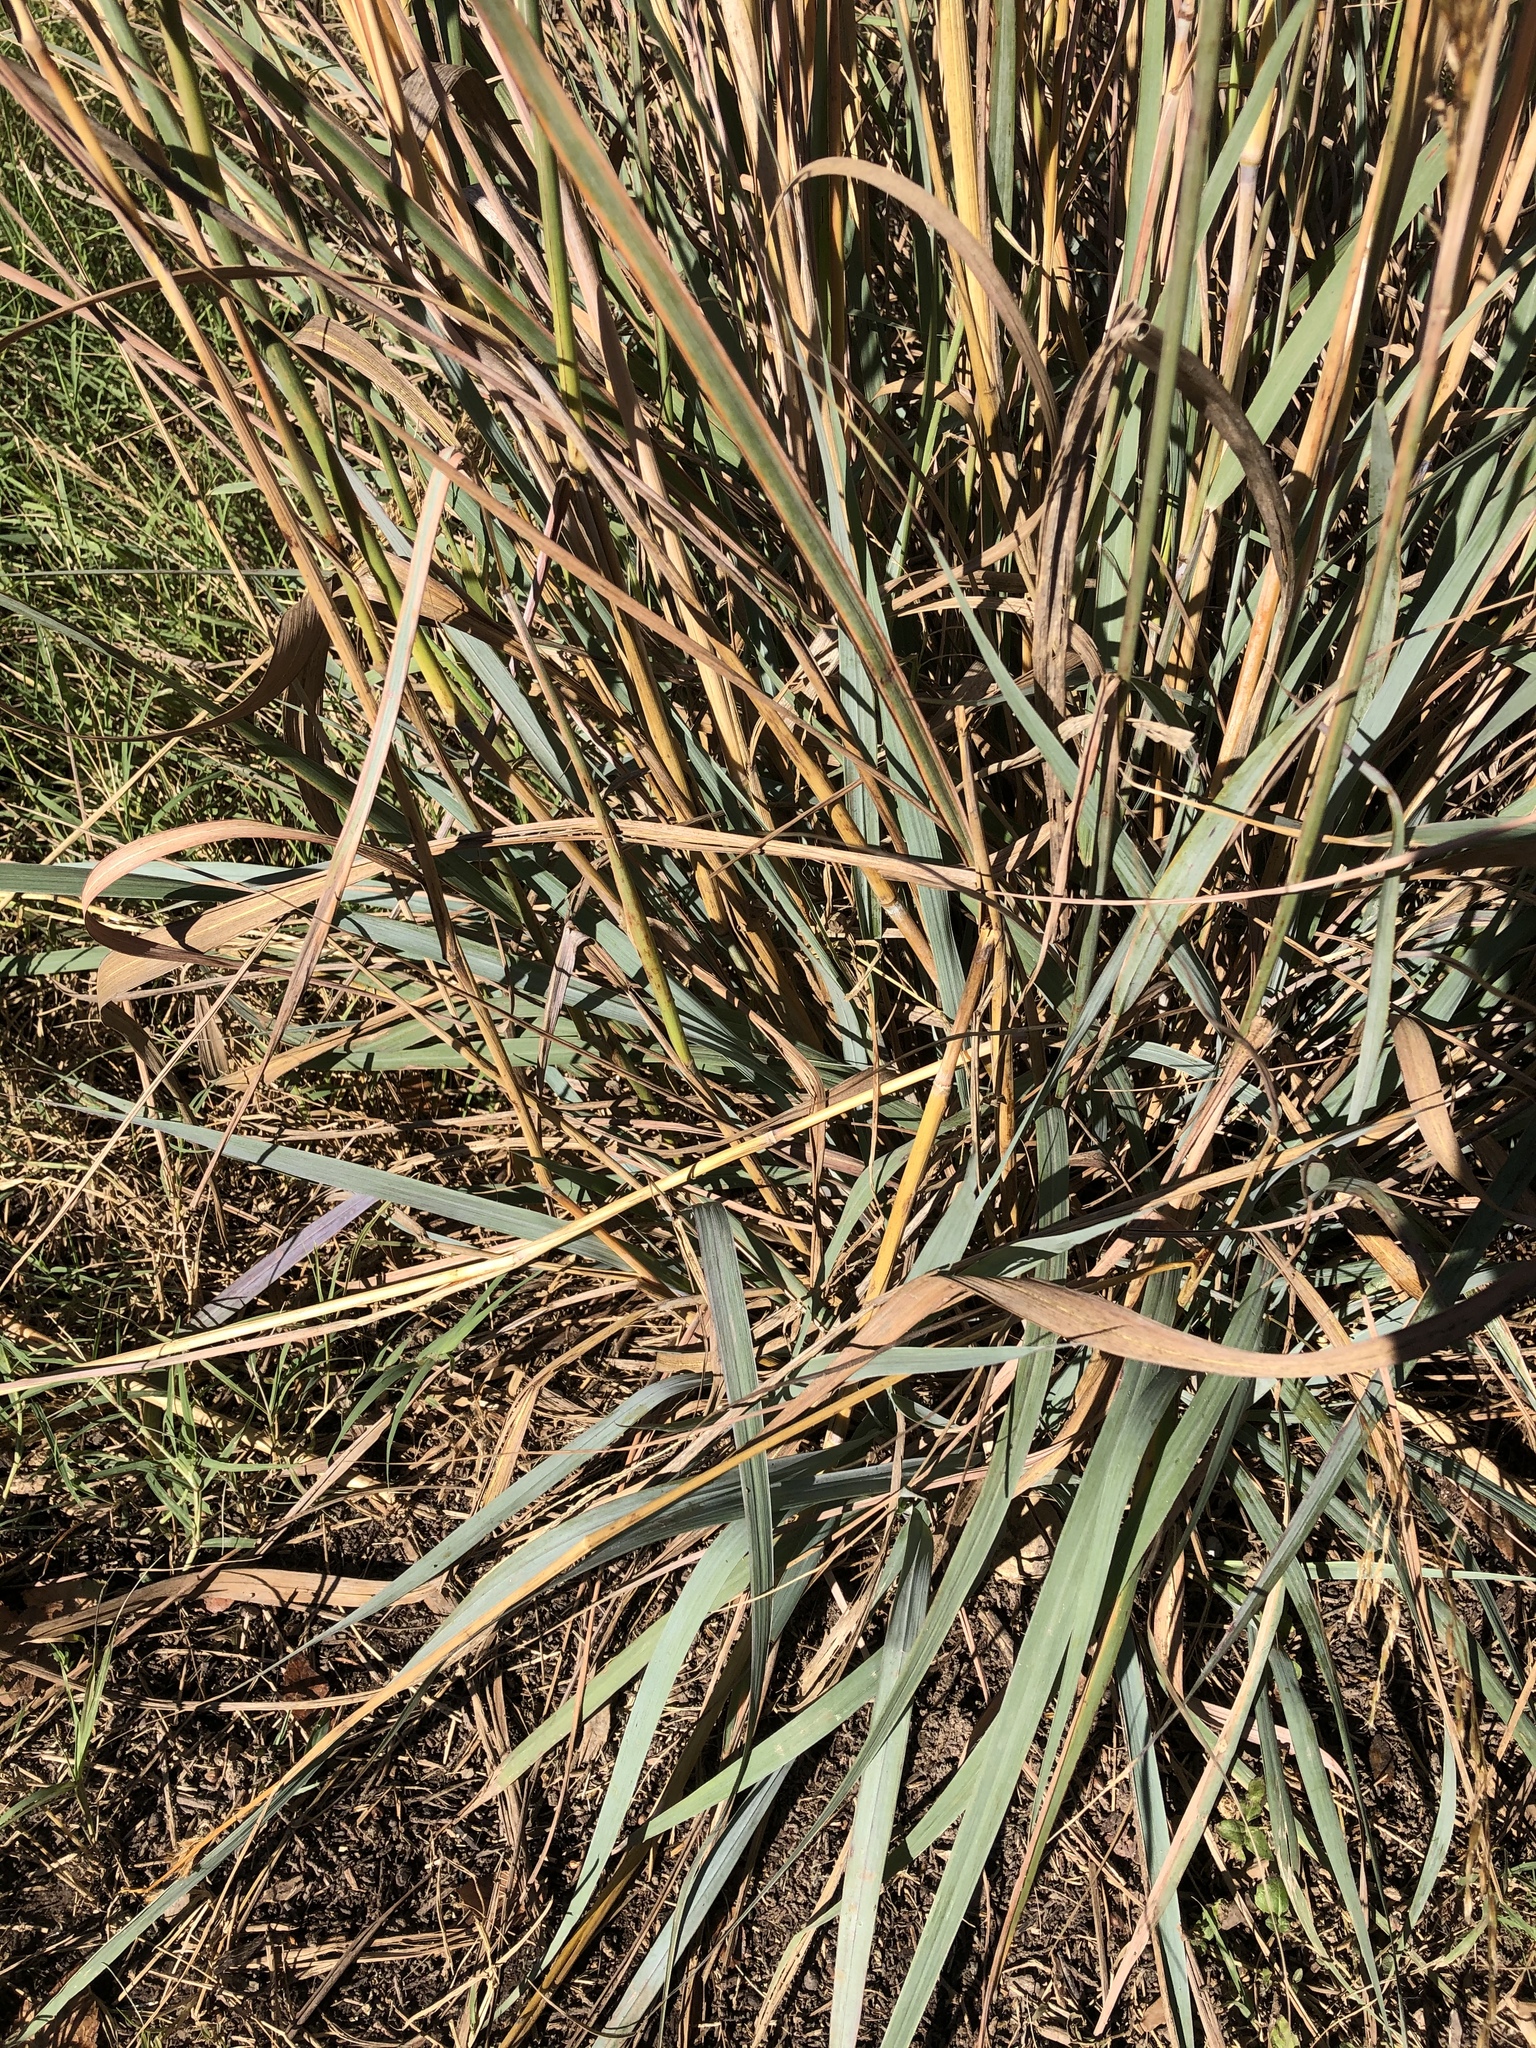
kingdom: Plantae
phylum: Tracheophyta
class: Liliopsida
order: Poales
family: Poaceae
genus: Sorghastrum
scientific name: Sorghastrum nutans
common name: Indian grass
